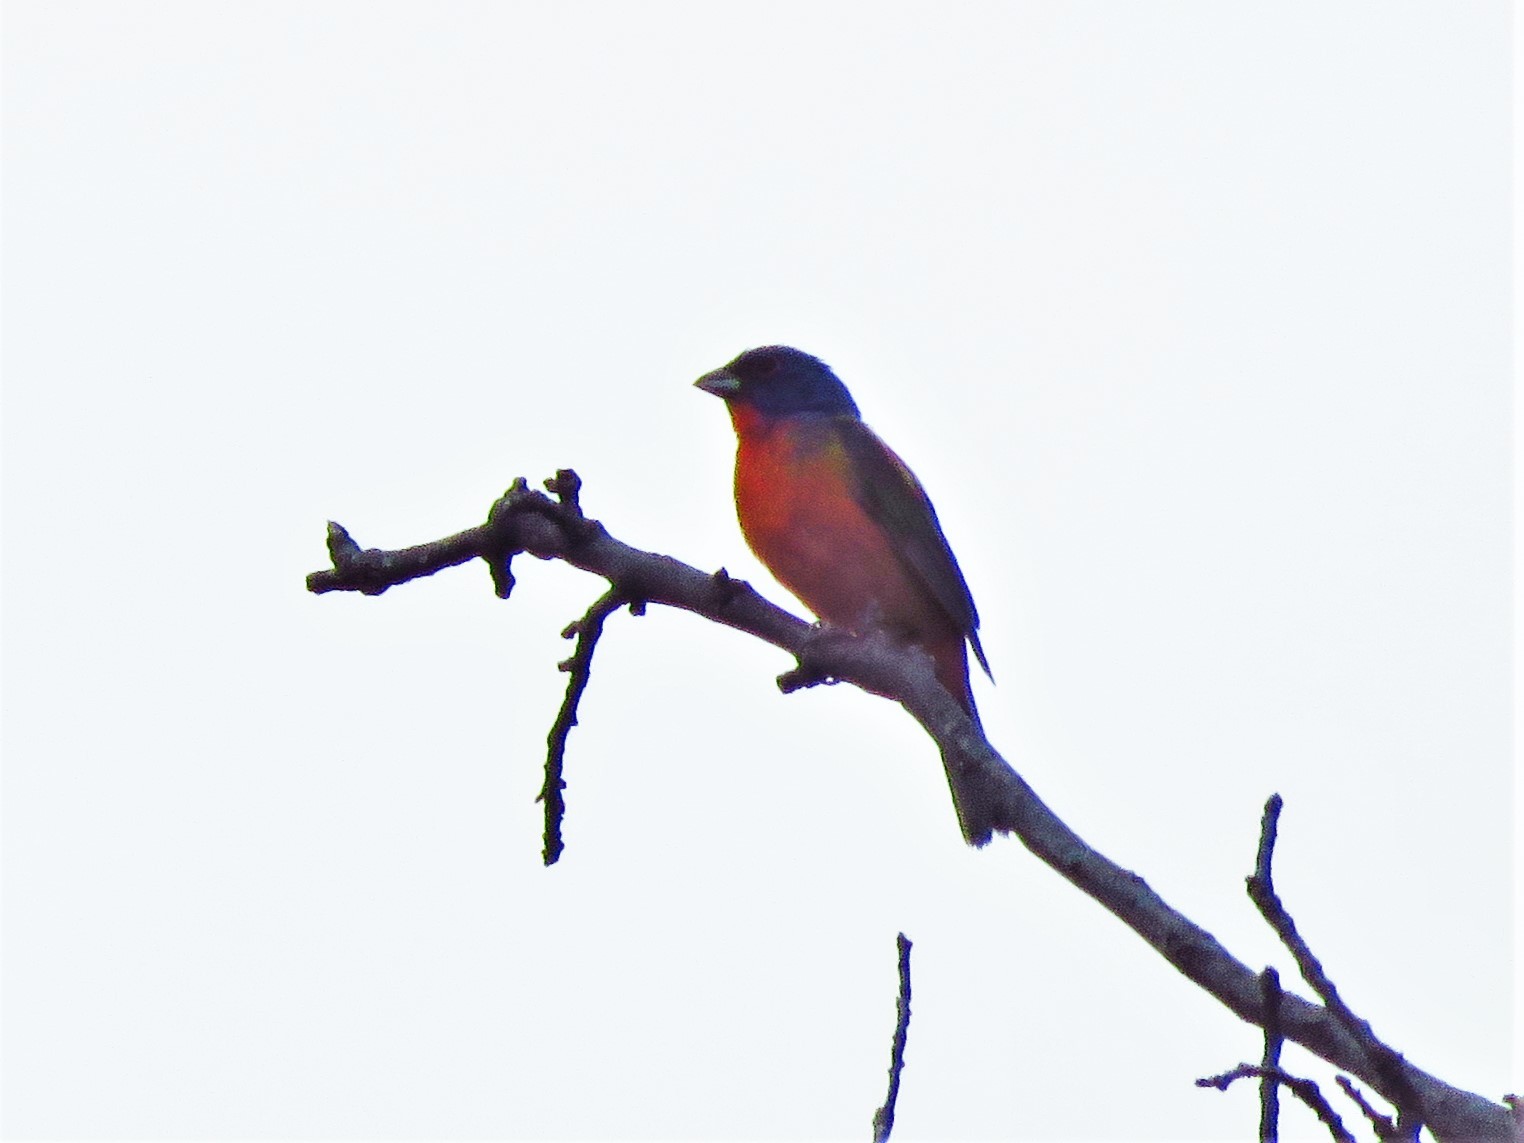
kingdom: Animalia
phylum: Chordata
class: Aves
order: Passeriformes
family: Cardinalidae
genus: Passerina
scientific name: Passerina ciris
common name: Painted bunting
